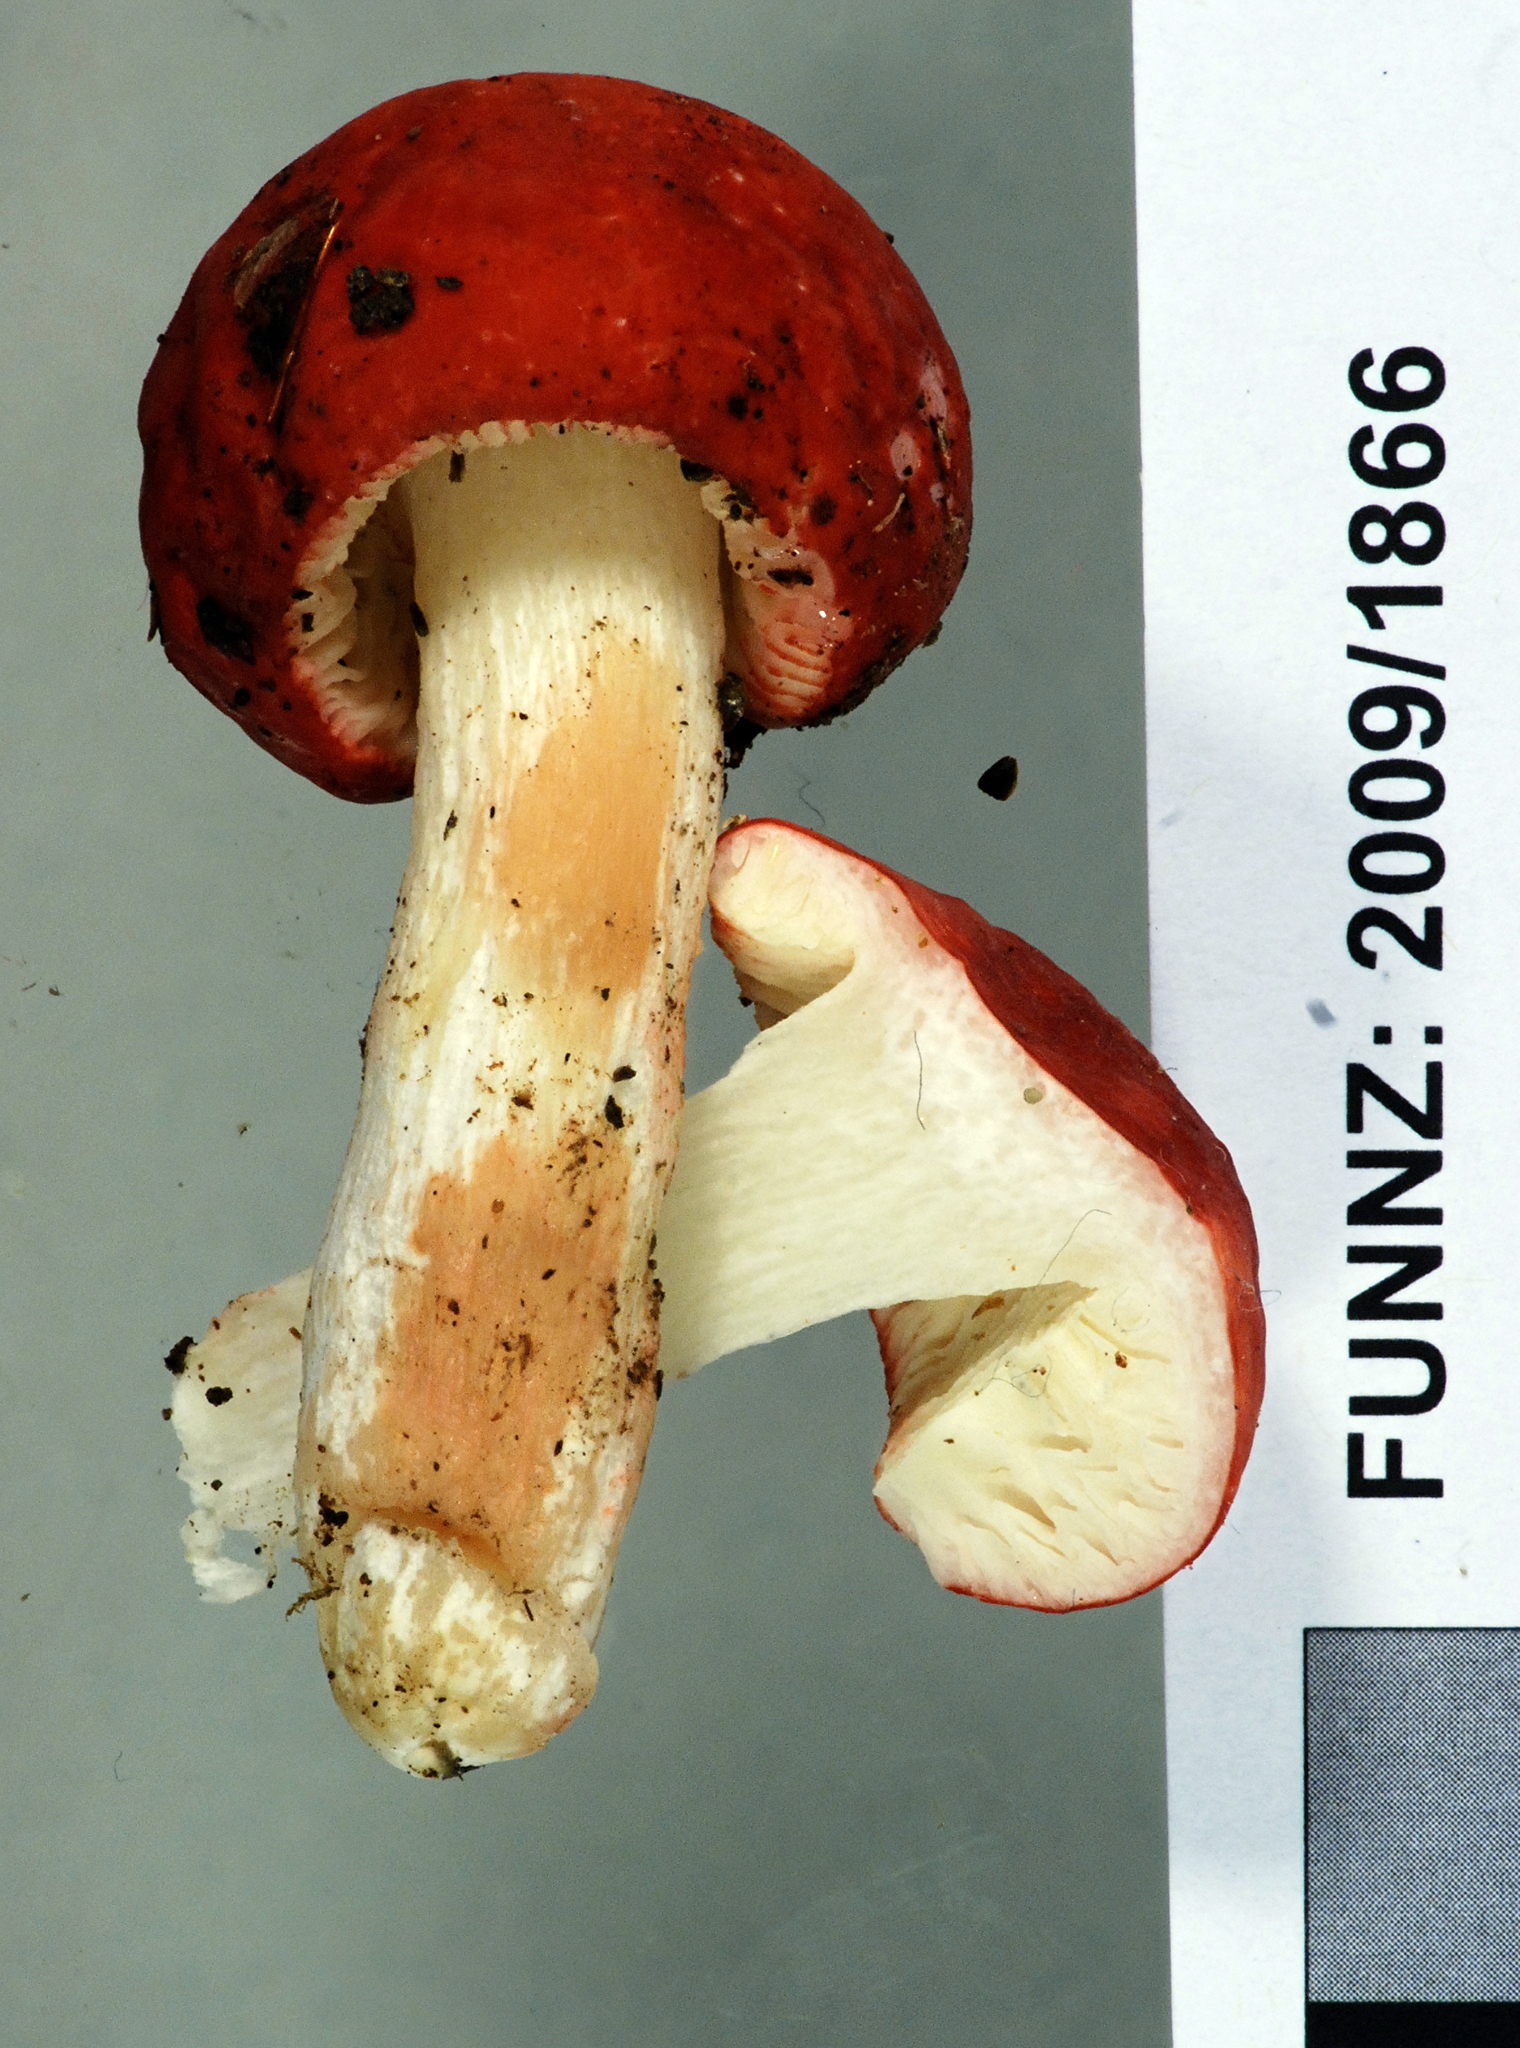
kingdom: Fungi
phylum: Basidiomycota
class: Agaricomycetes
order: Russulales
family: Russulaceae
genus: Russula
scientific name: Russula kermesina
